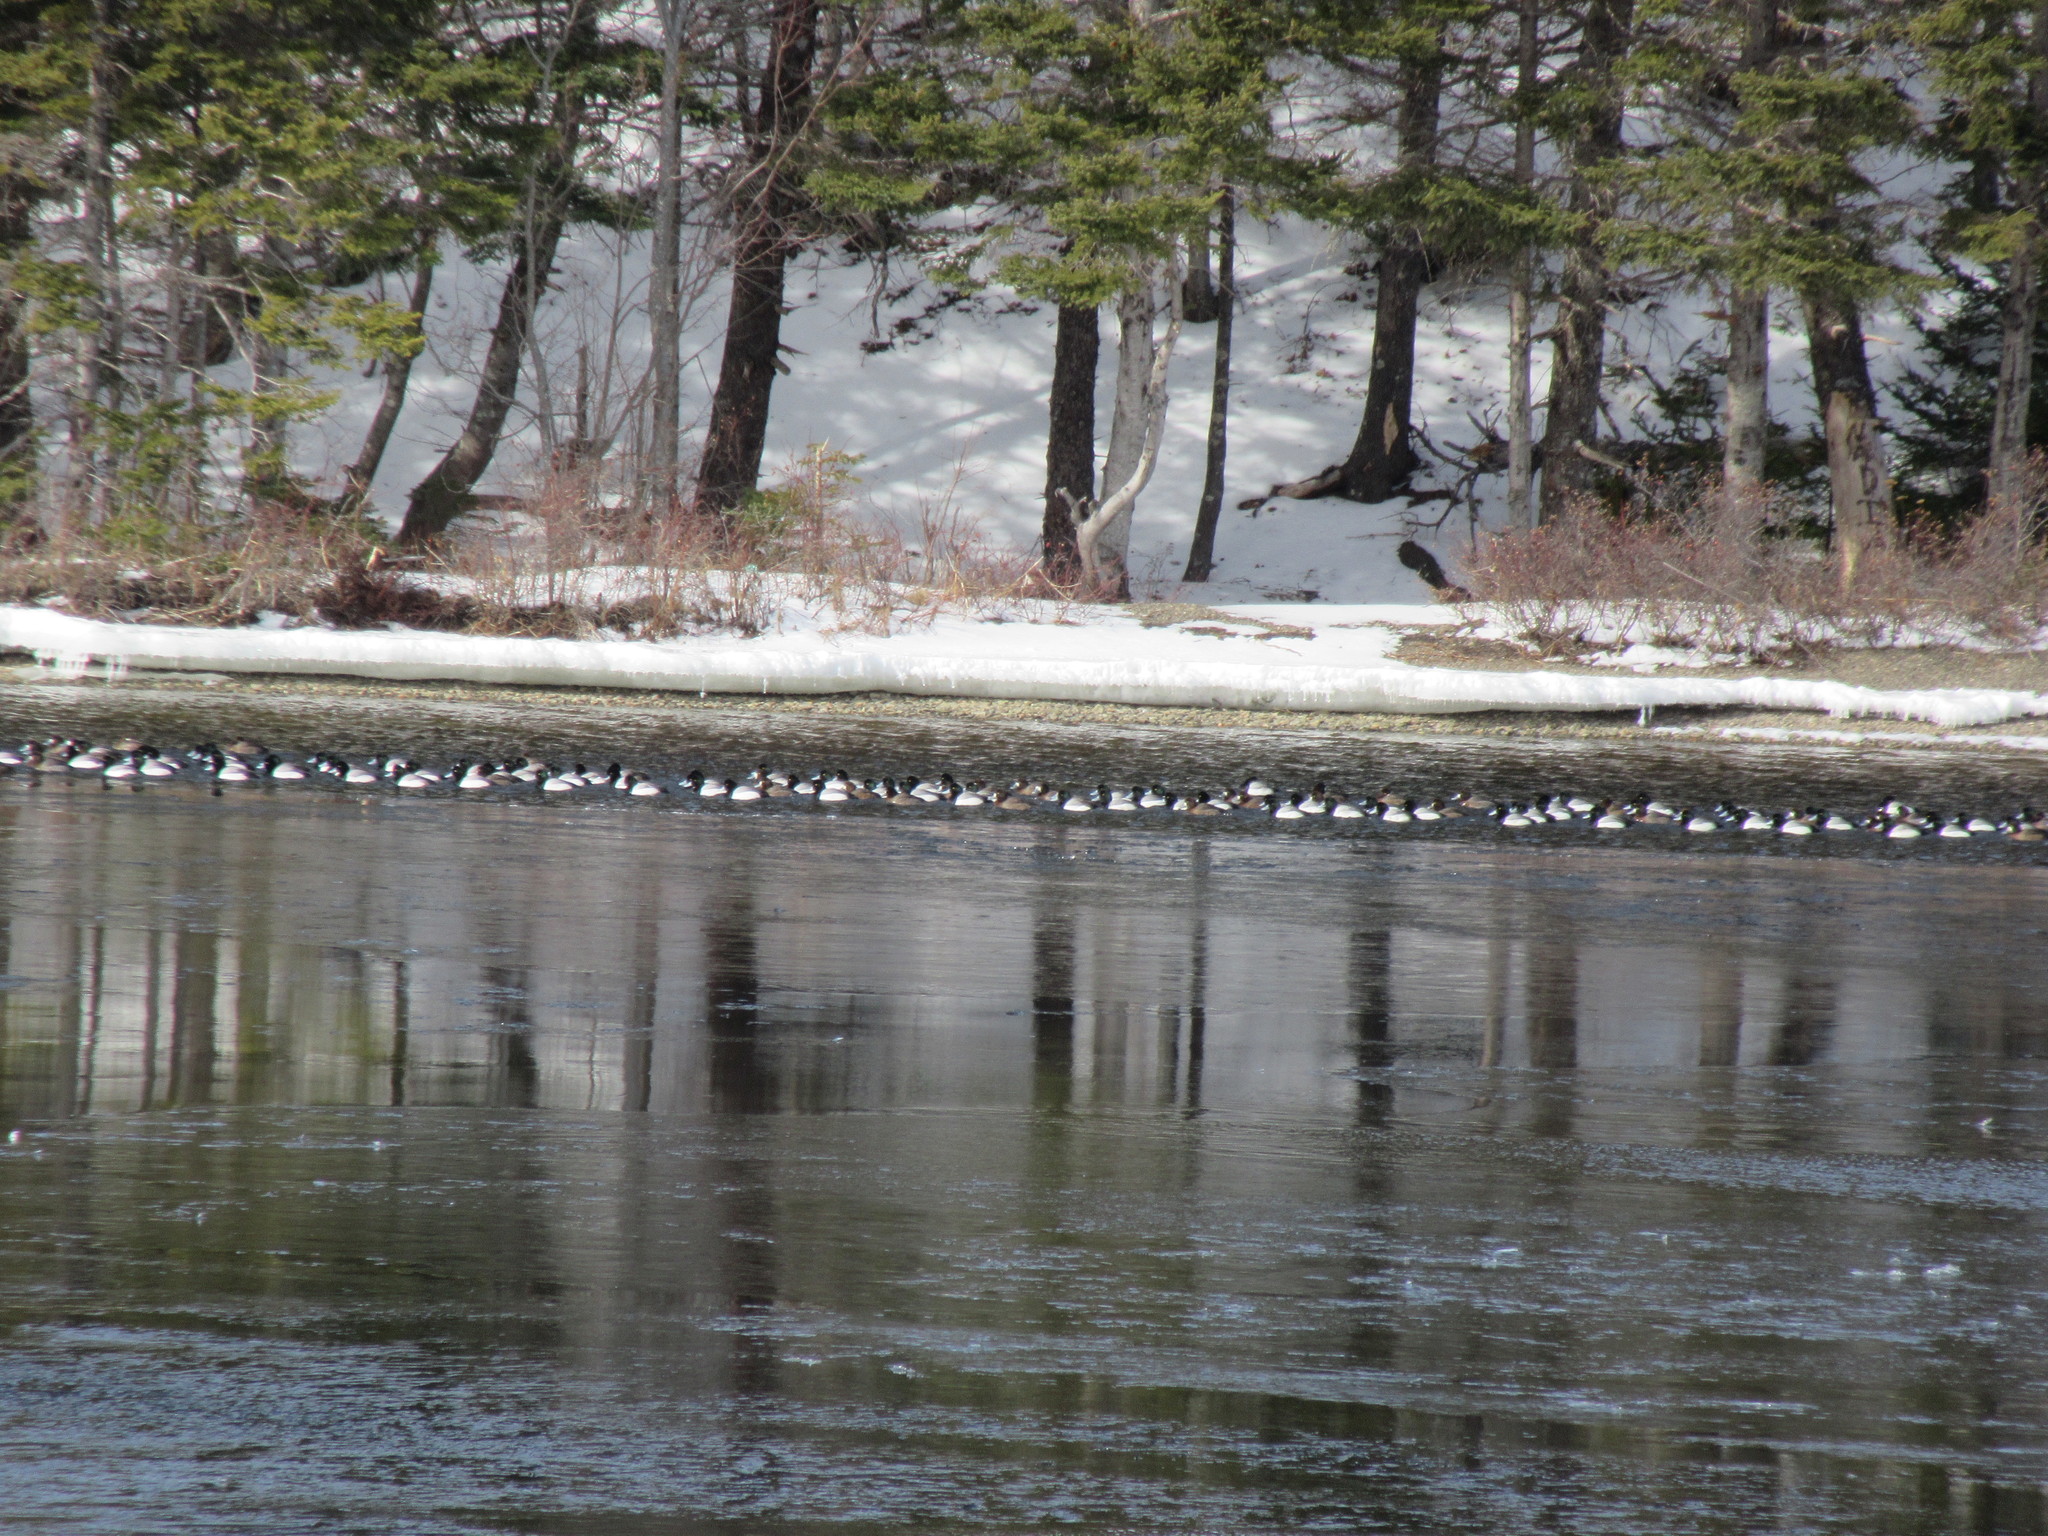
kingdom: Animalia
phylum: Chordata
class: Aves
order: Anseriformes
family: Anatidae
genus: Aythya
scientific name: Aythya marila
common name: Greater scaup
